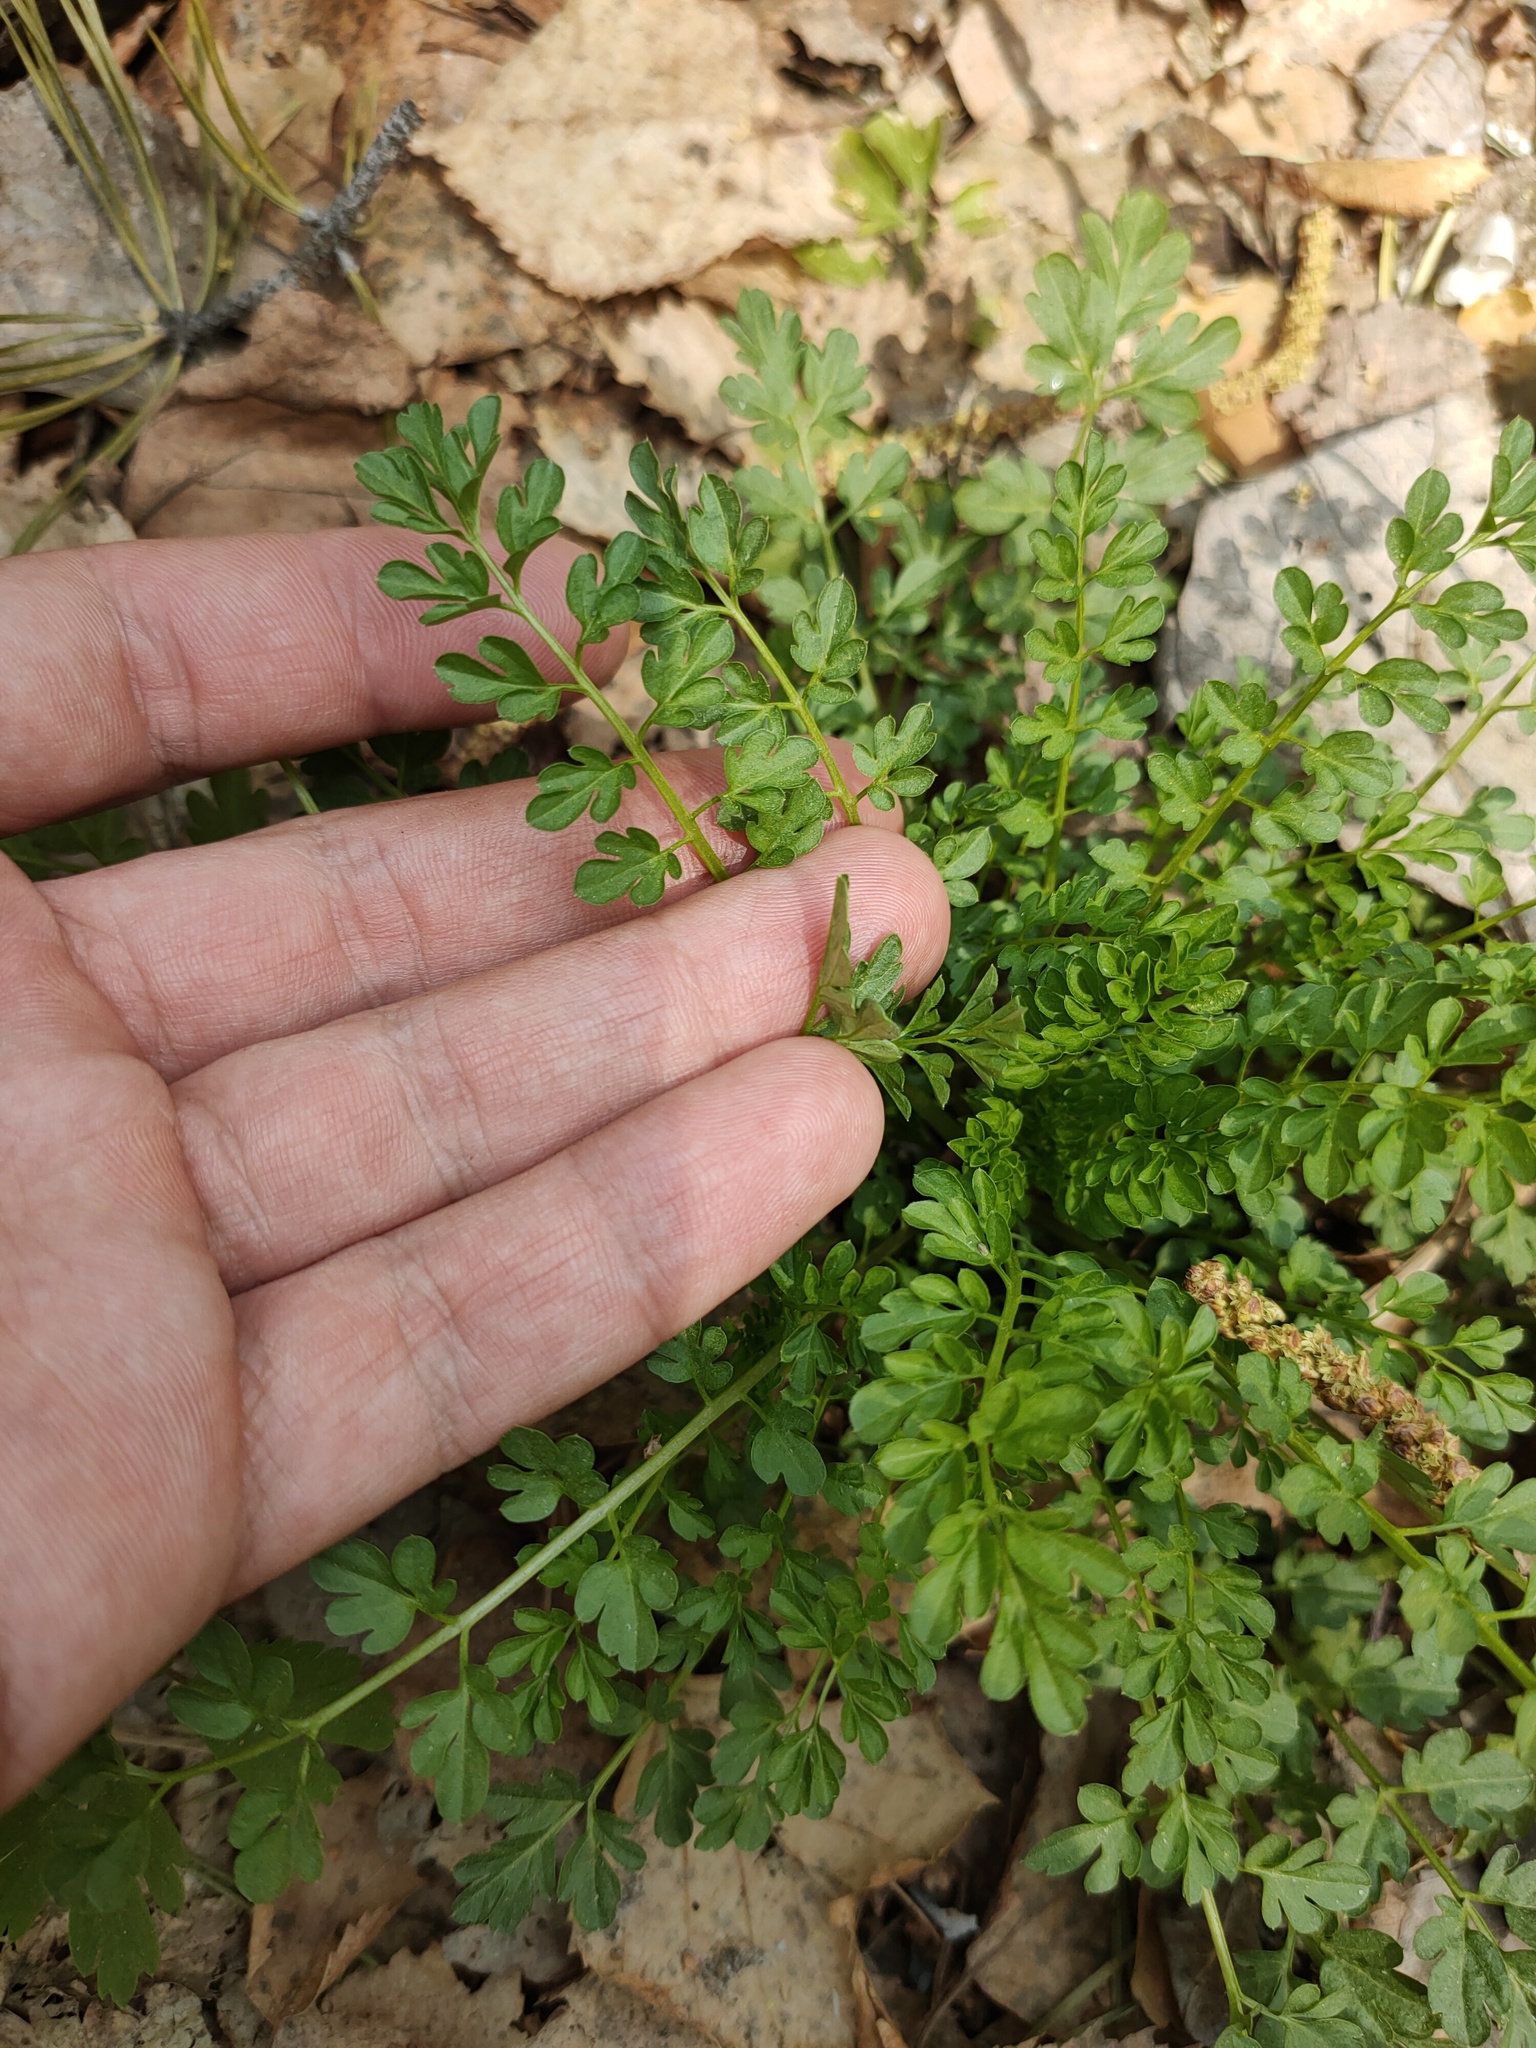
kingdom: Plantae
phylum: Tracheophyta
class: Magnoliopsida
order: Brassicales
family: Brassicaceae
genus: Cardamine
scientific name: Cardamine impatiens
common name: Narrow-leaved bitter-cress
